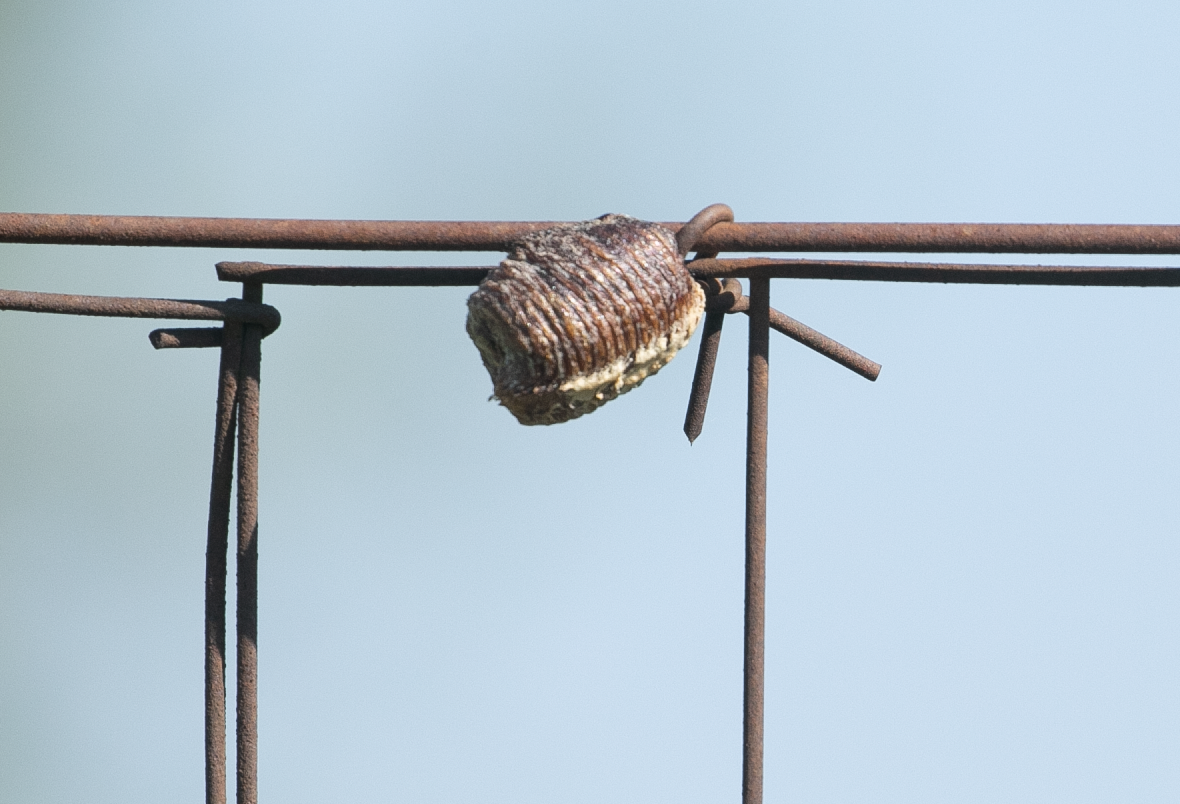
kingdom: Animalia
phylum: Arthropoda
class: Insecta
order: Mantodea
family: Mantidae
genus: Hierodula
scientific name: Hierodula transcaucasica
